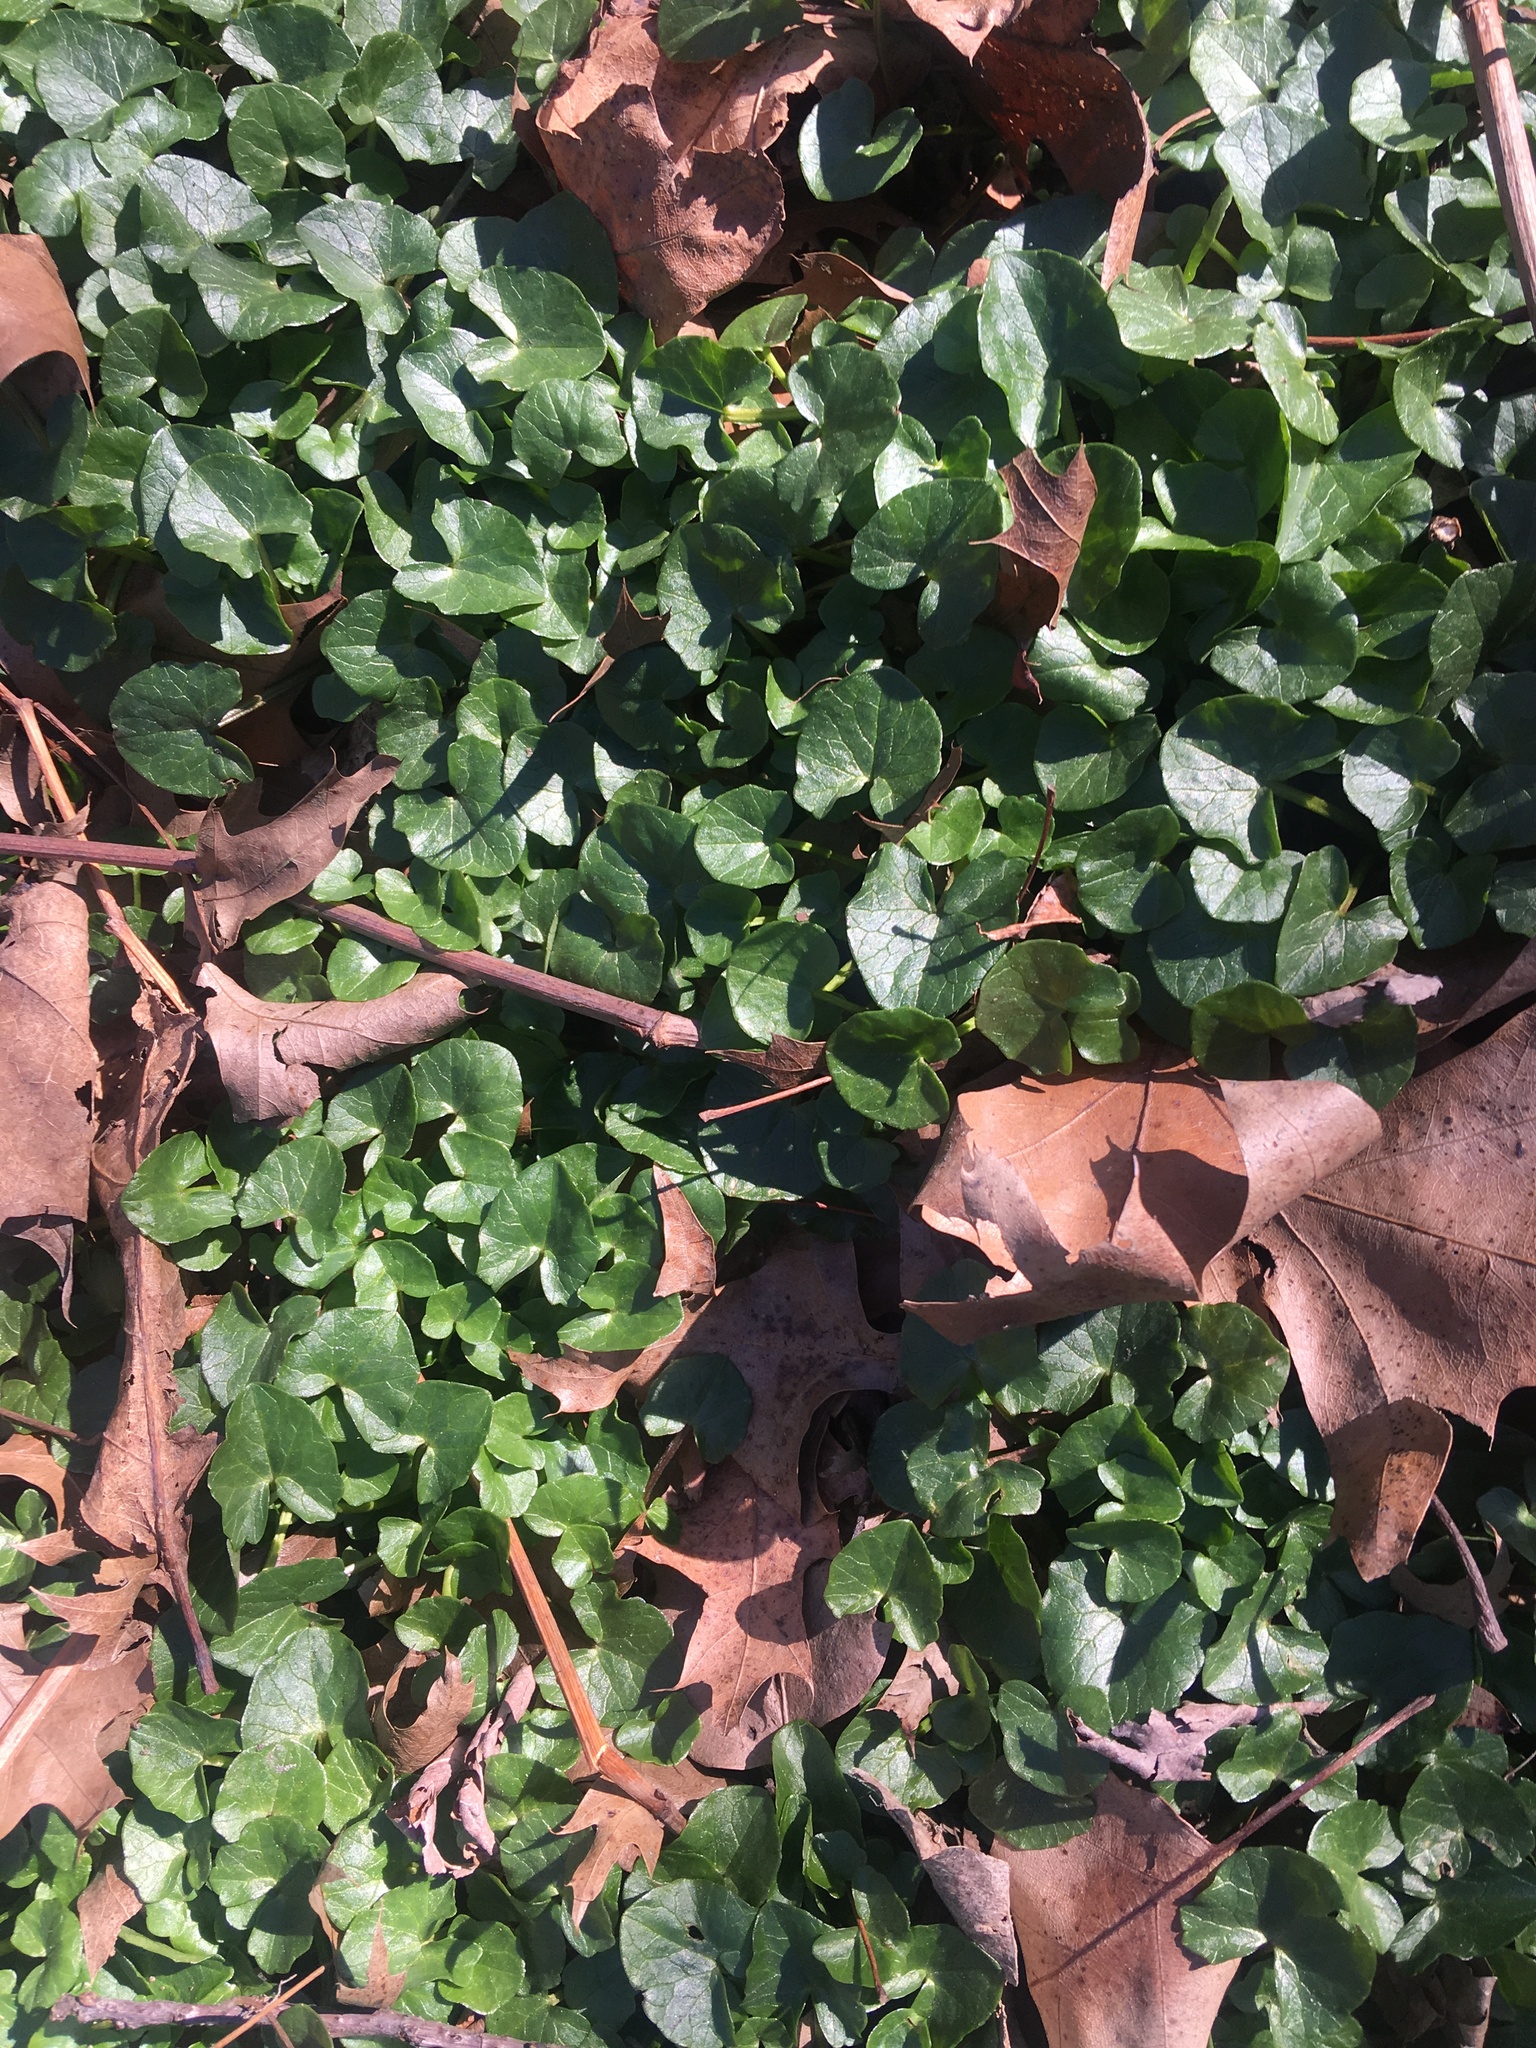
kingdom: Plantae
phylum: Tracheophyta
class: Magnoliopsida
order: Ranunculales
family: Ranunculaceae
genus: Ficaria
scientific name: Ficaria verna
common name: Lesser celandine
